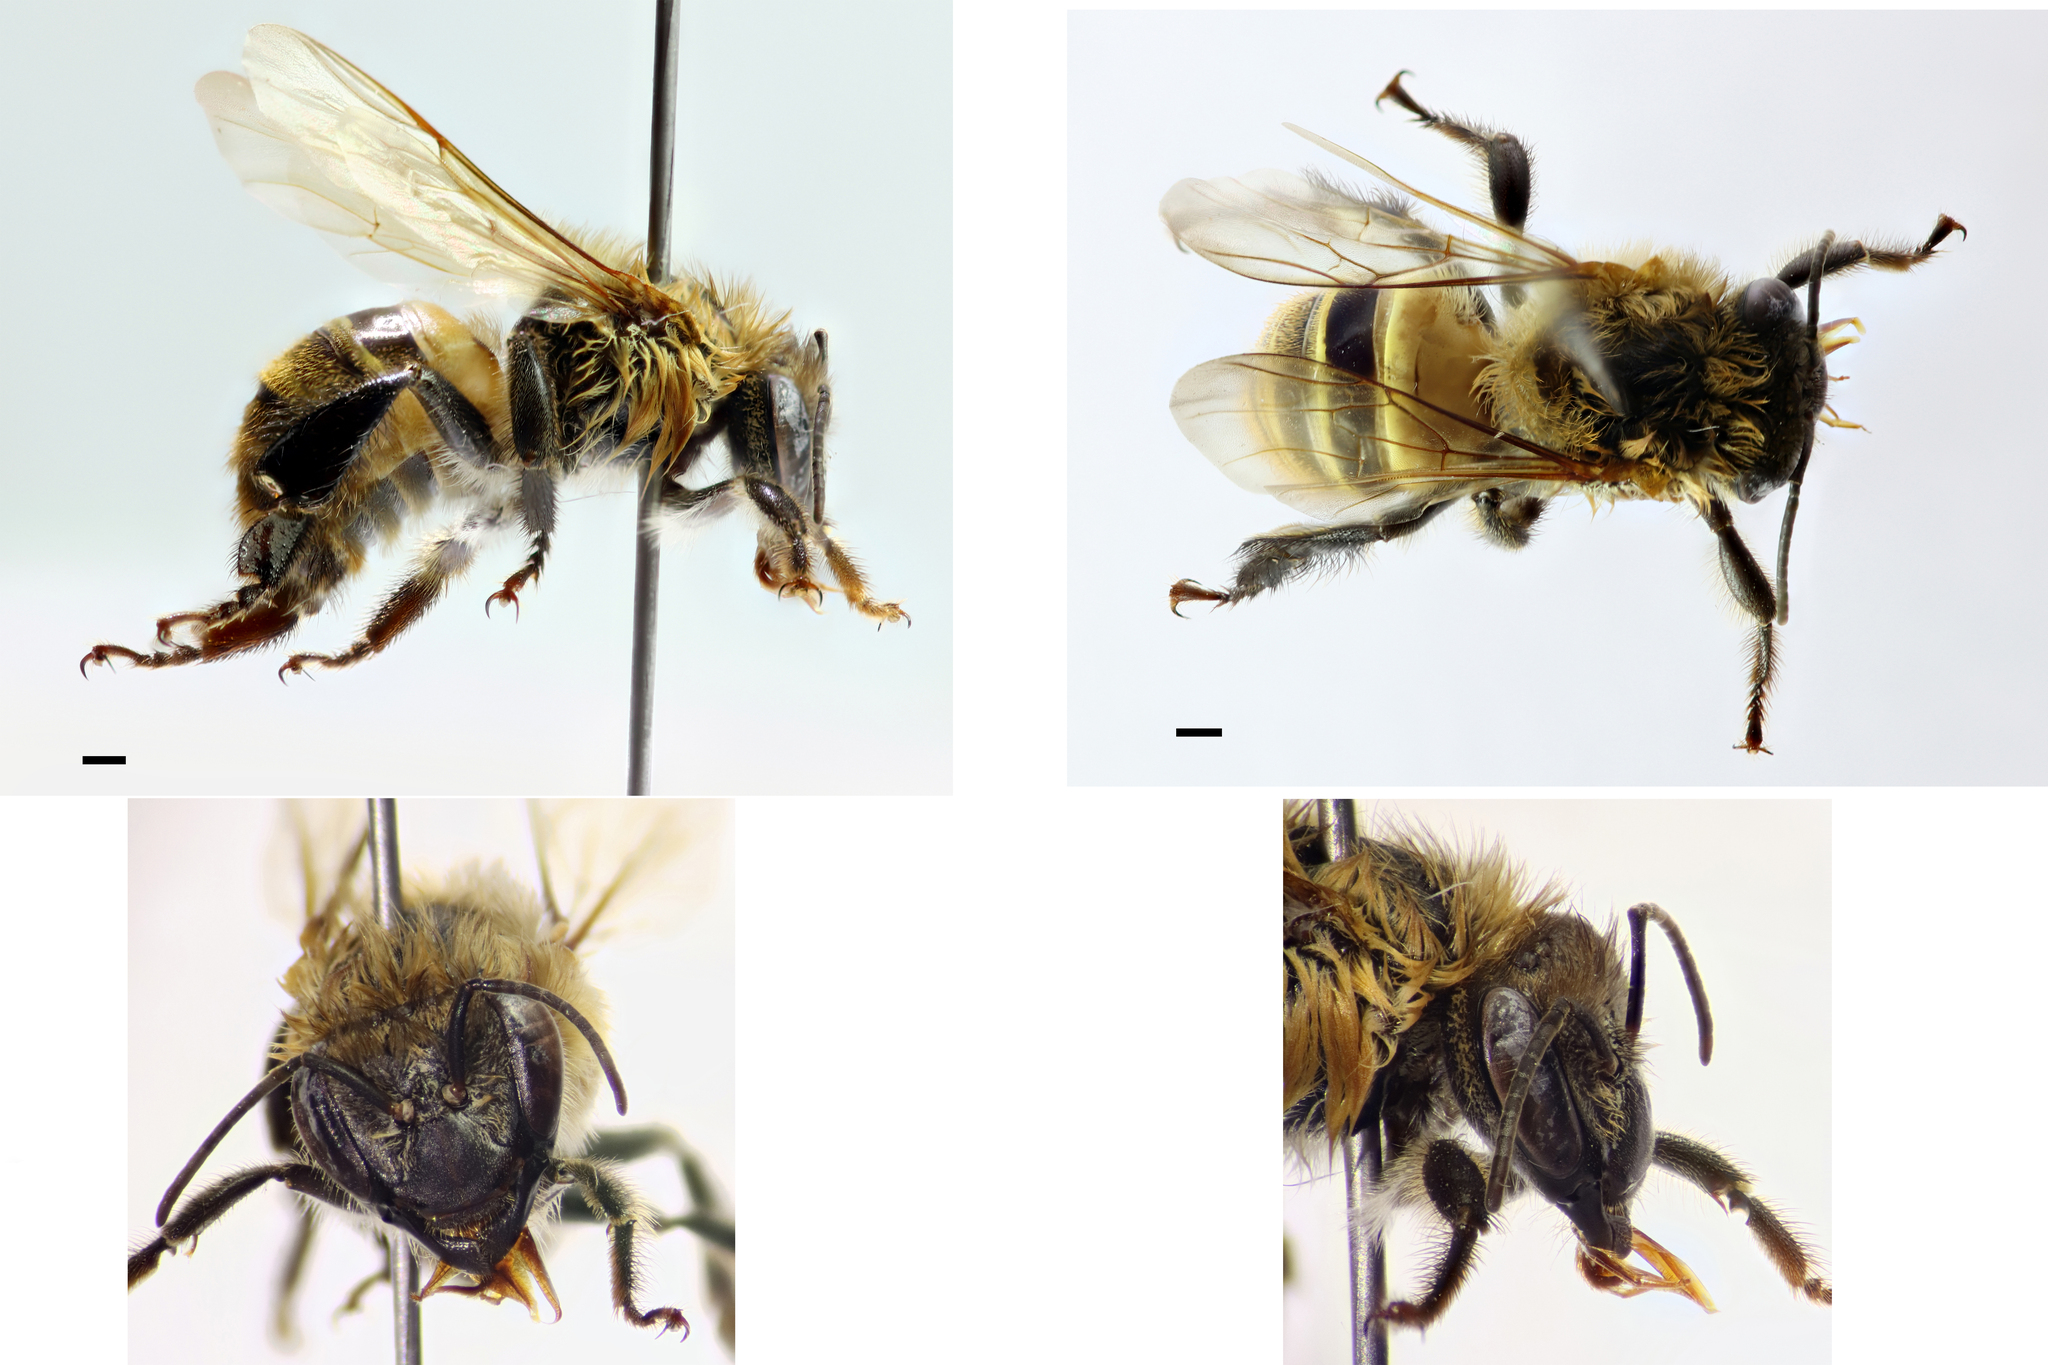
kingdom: Animalia
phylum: Arthropoda
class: Insecta
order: Hymenoptera
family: Apidae
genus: Melipona
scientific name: Melipona eburnea
